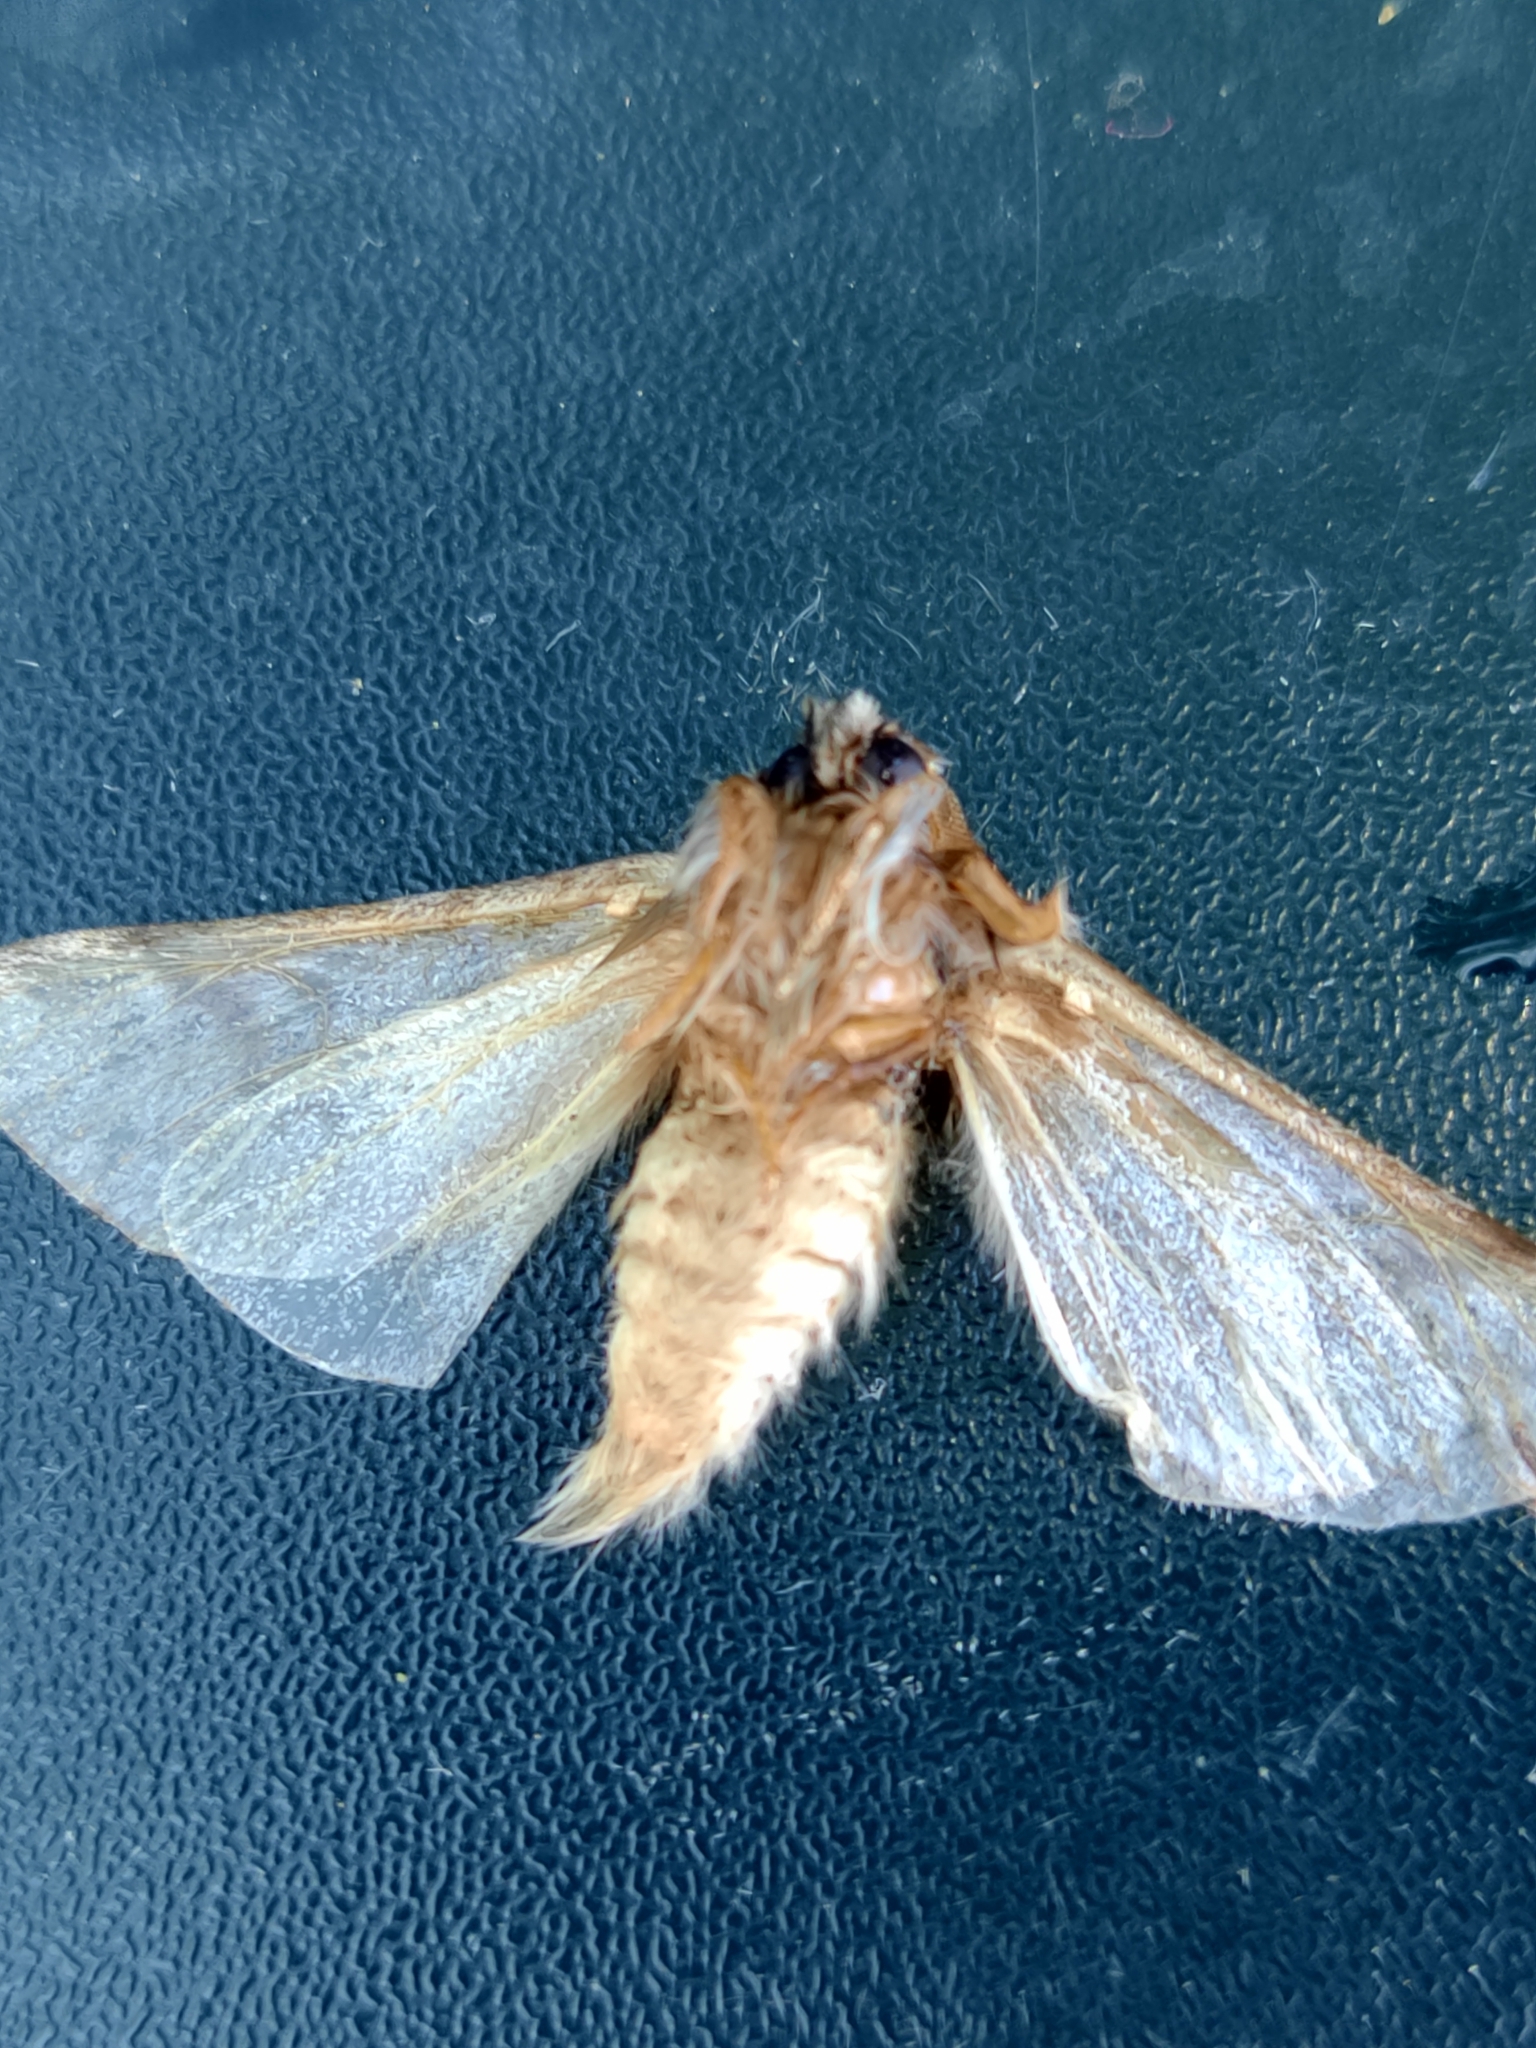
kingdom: Animalia
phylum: Arthropoda
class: Insecta
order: Lepidoptera
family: Notodontidae
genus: Thaumetopoea
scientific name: Thaumetopoea pityocampa
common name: Pine processionary
